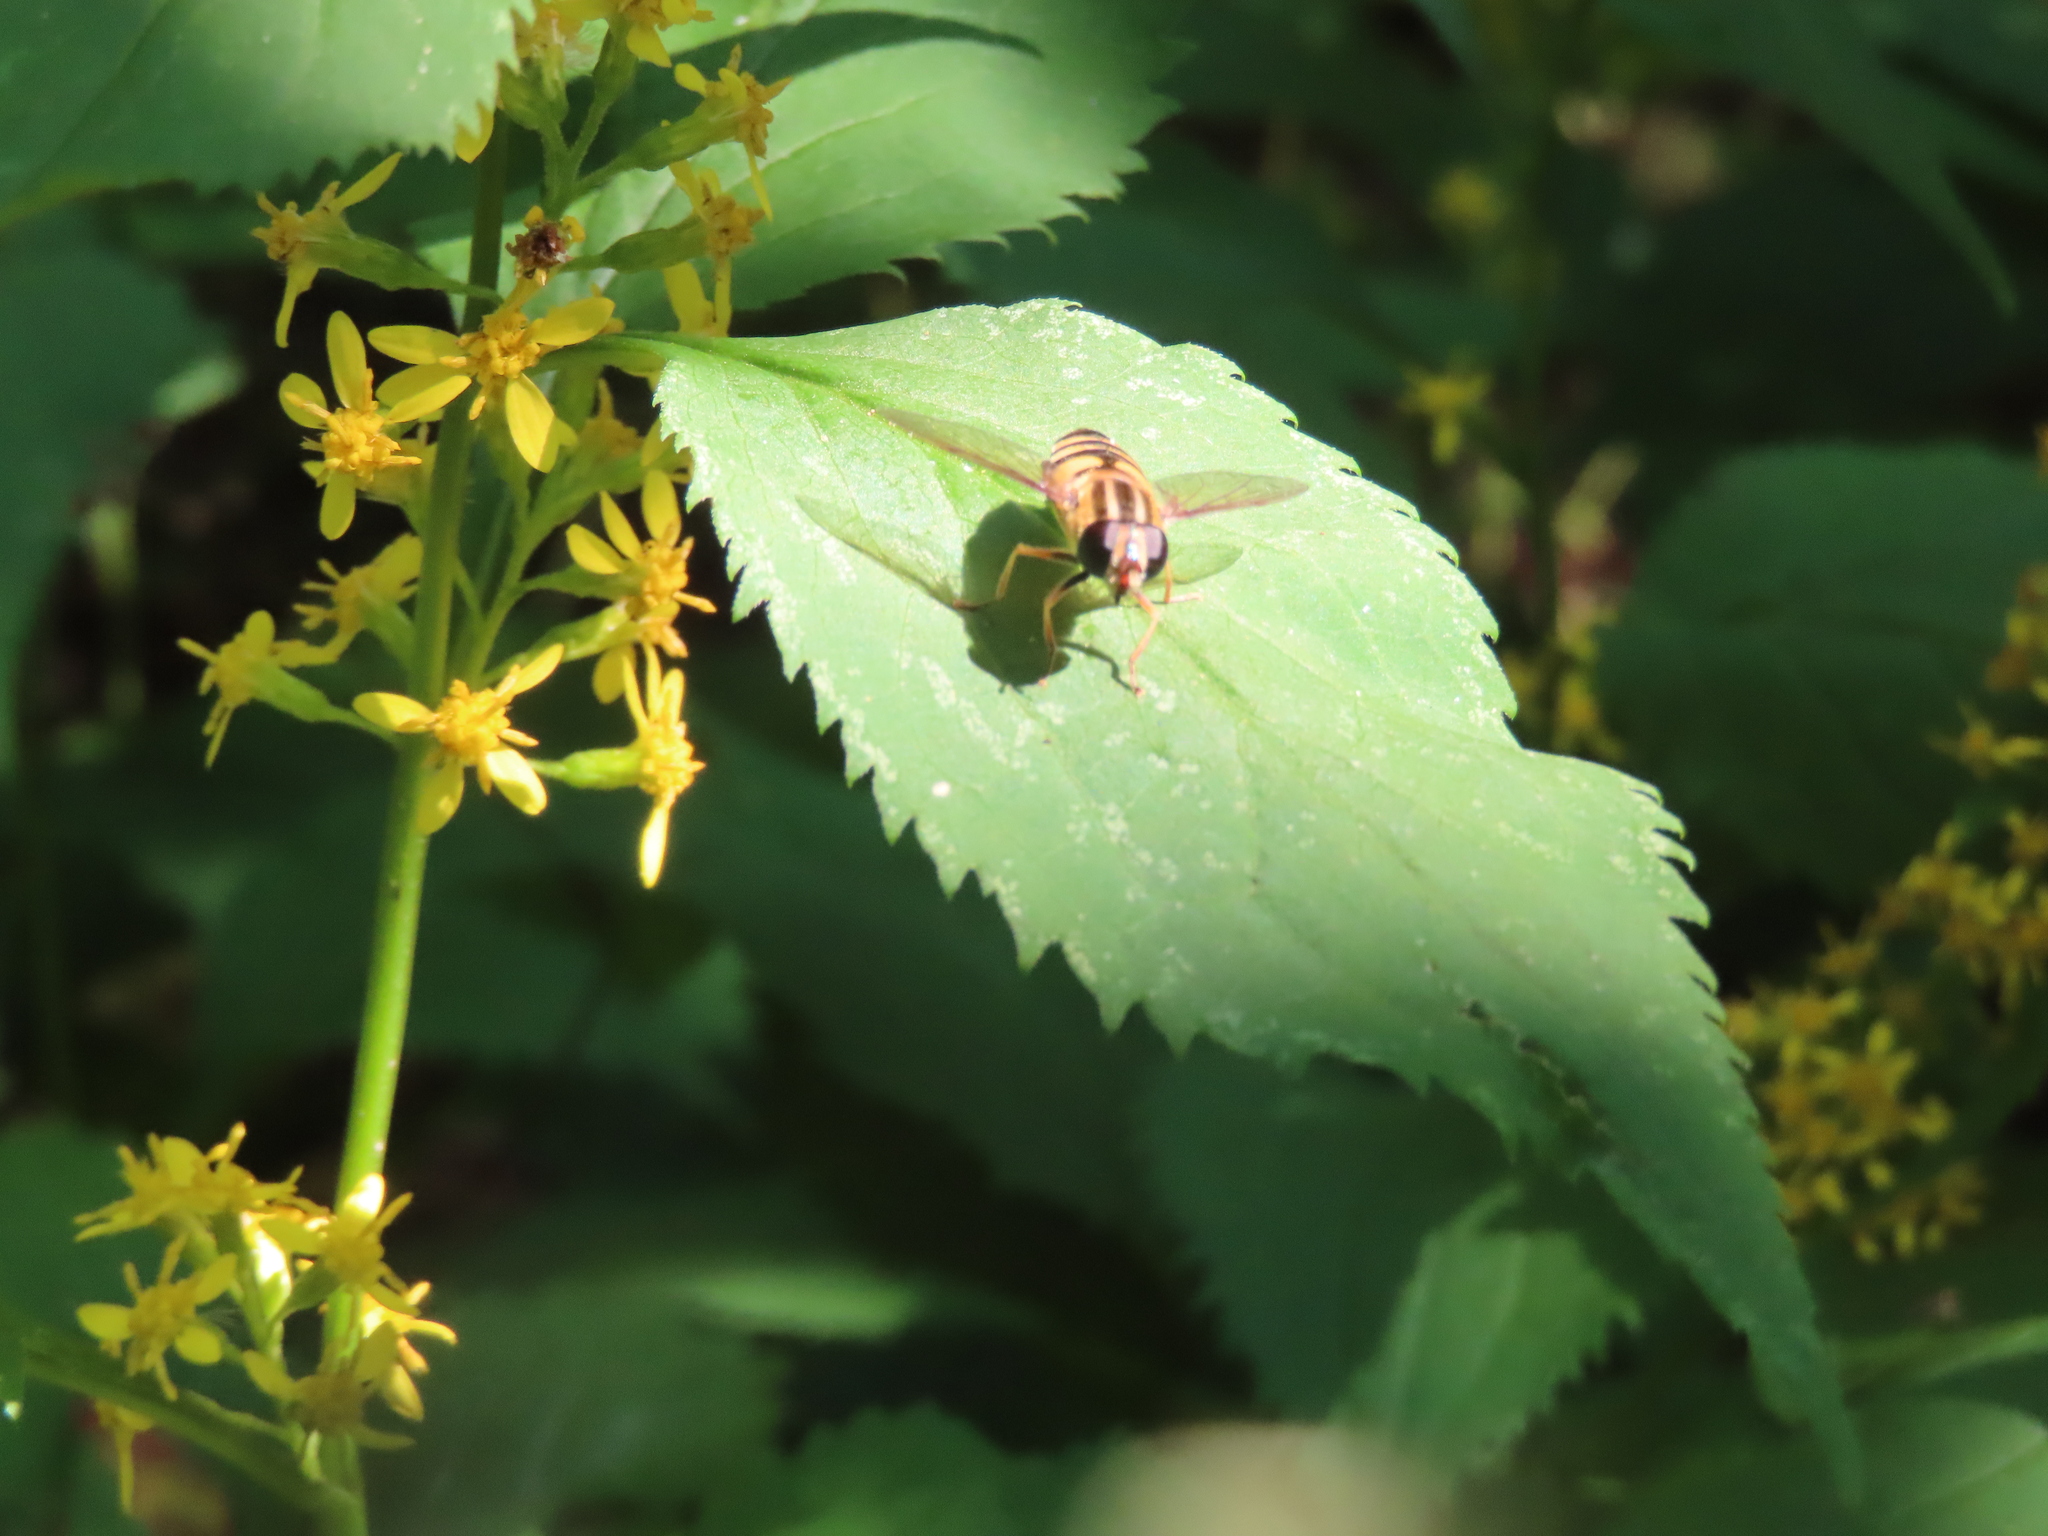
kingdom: Animalia
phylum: Arthropoda
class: Insecta
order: Diptera
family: Syrphidae
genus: Helophilus
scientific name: Helophilus fasciatus
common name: Narrow-headed marsh fly
